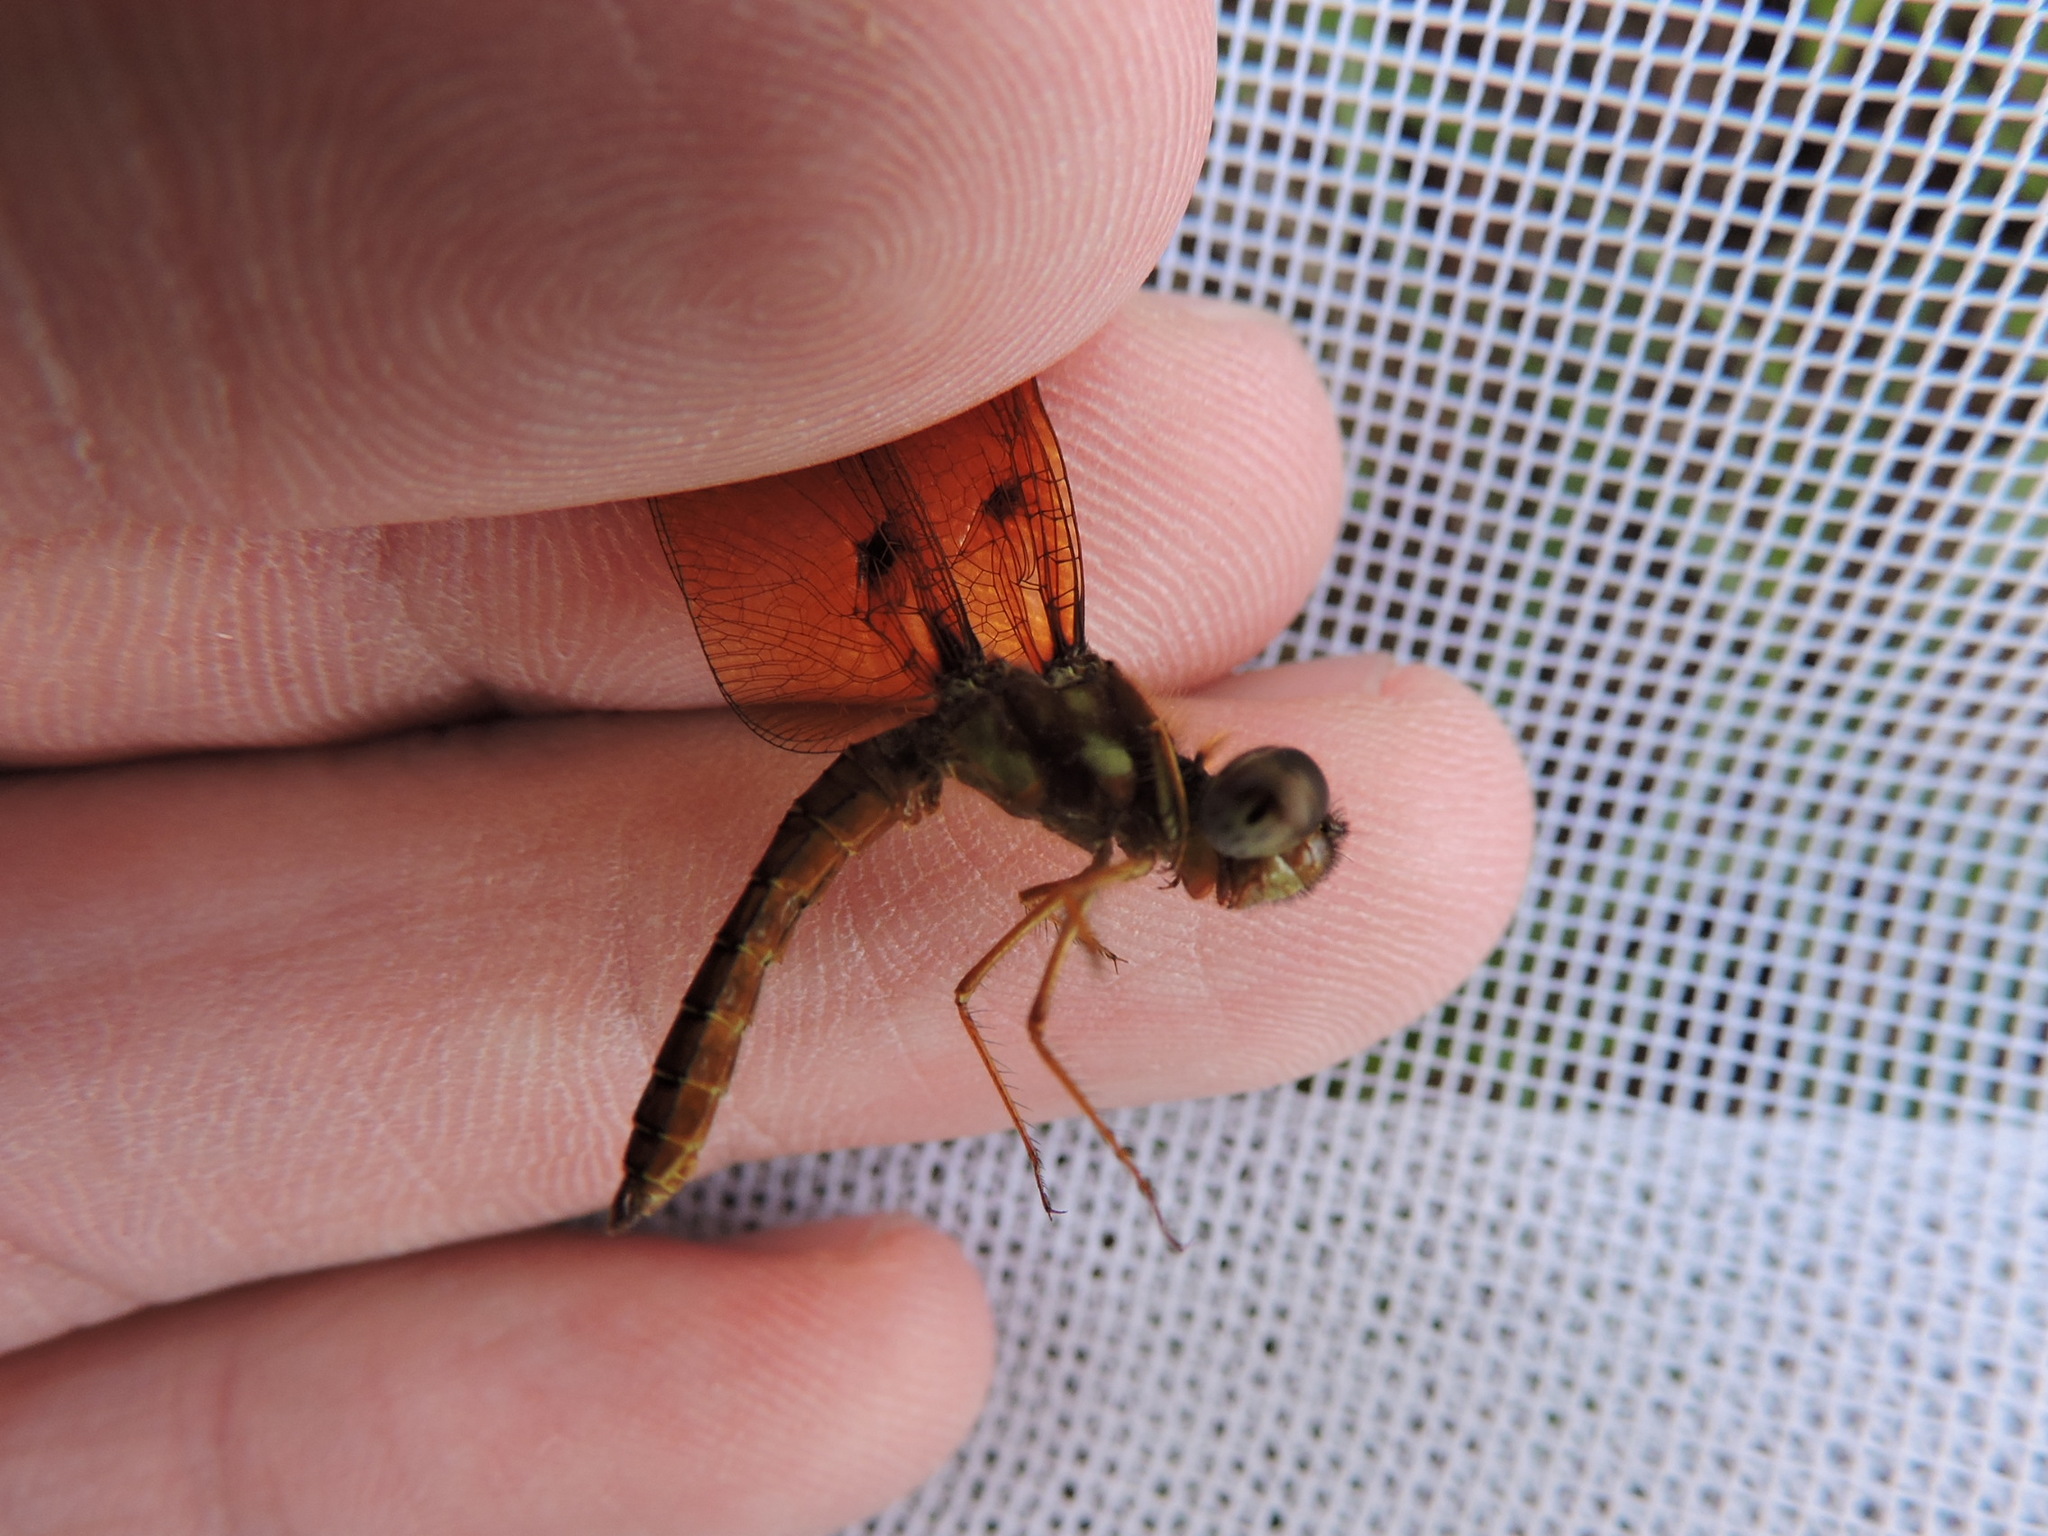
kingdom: Animalia
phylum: Arthropoda
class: Insecta
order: Odonata
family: Libellulidae
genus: Perithemis
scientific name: Perithemis tenera
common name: Eastern amberwing
